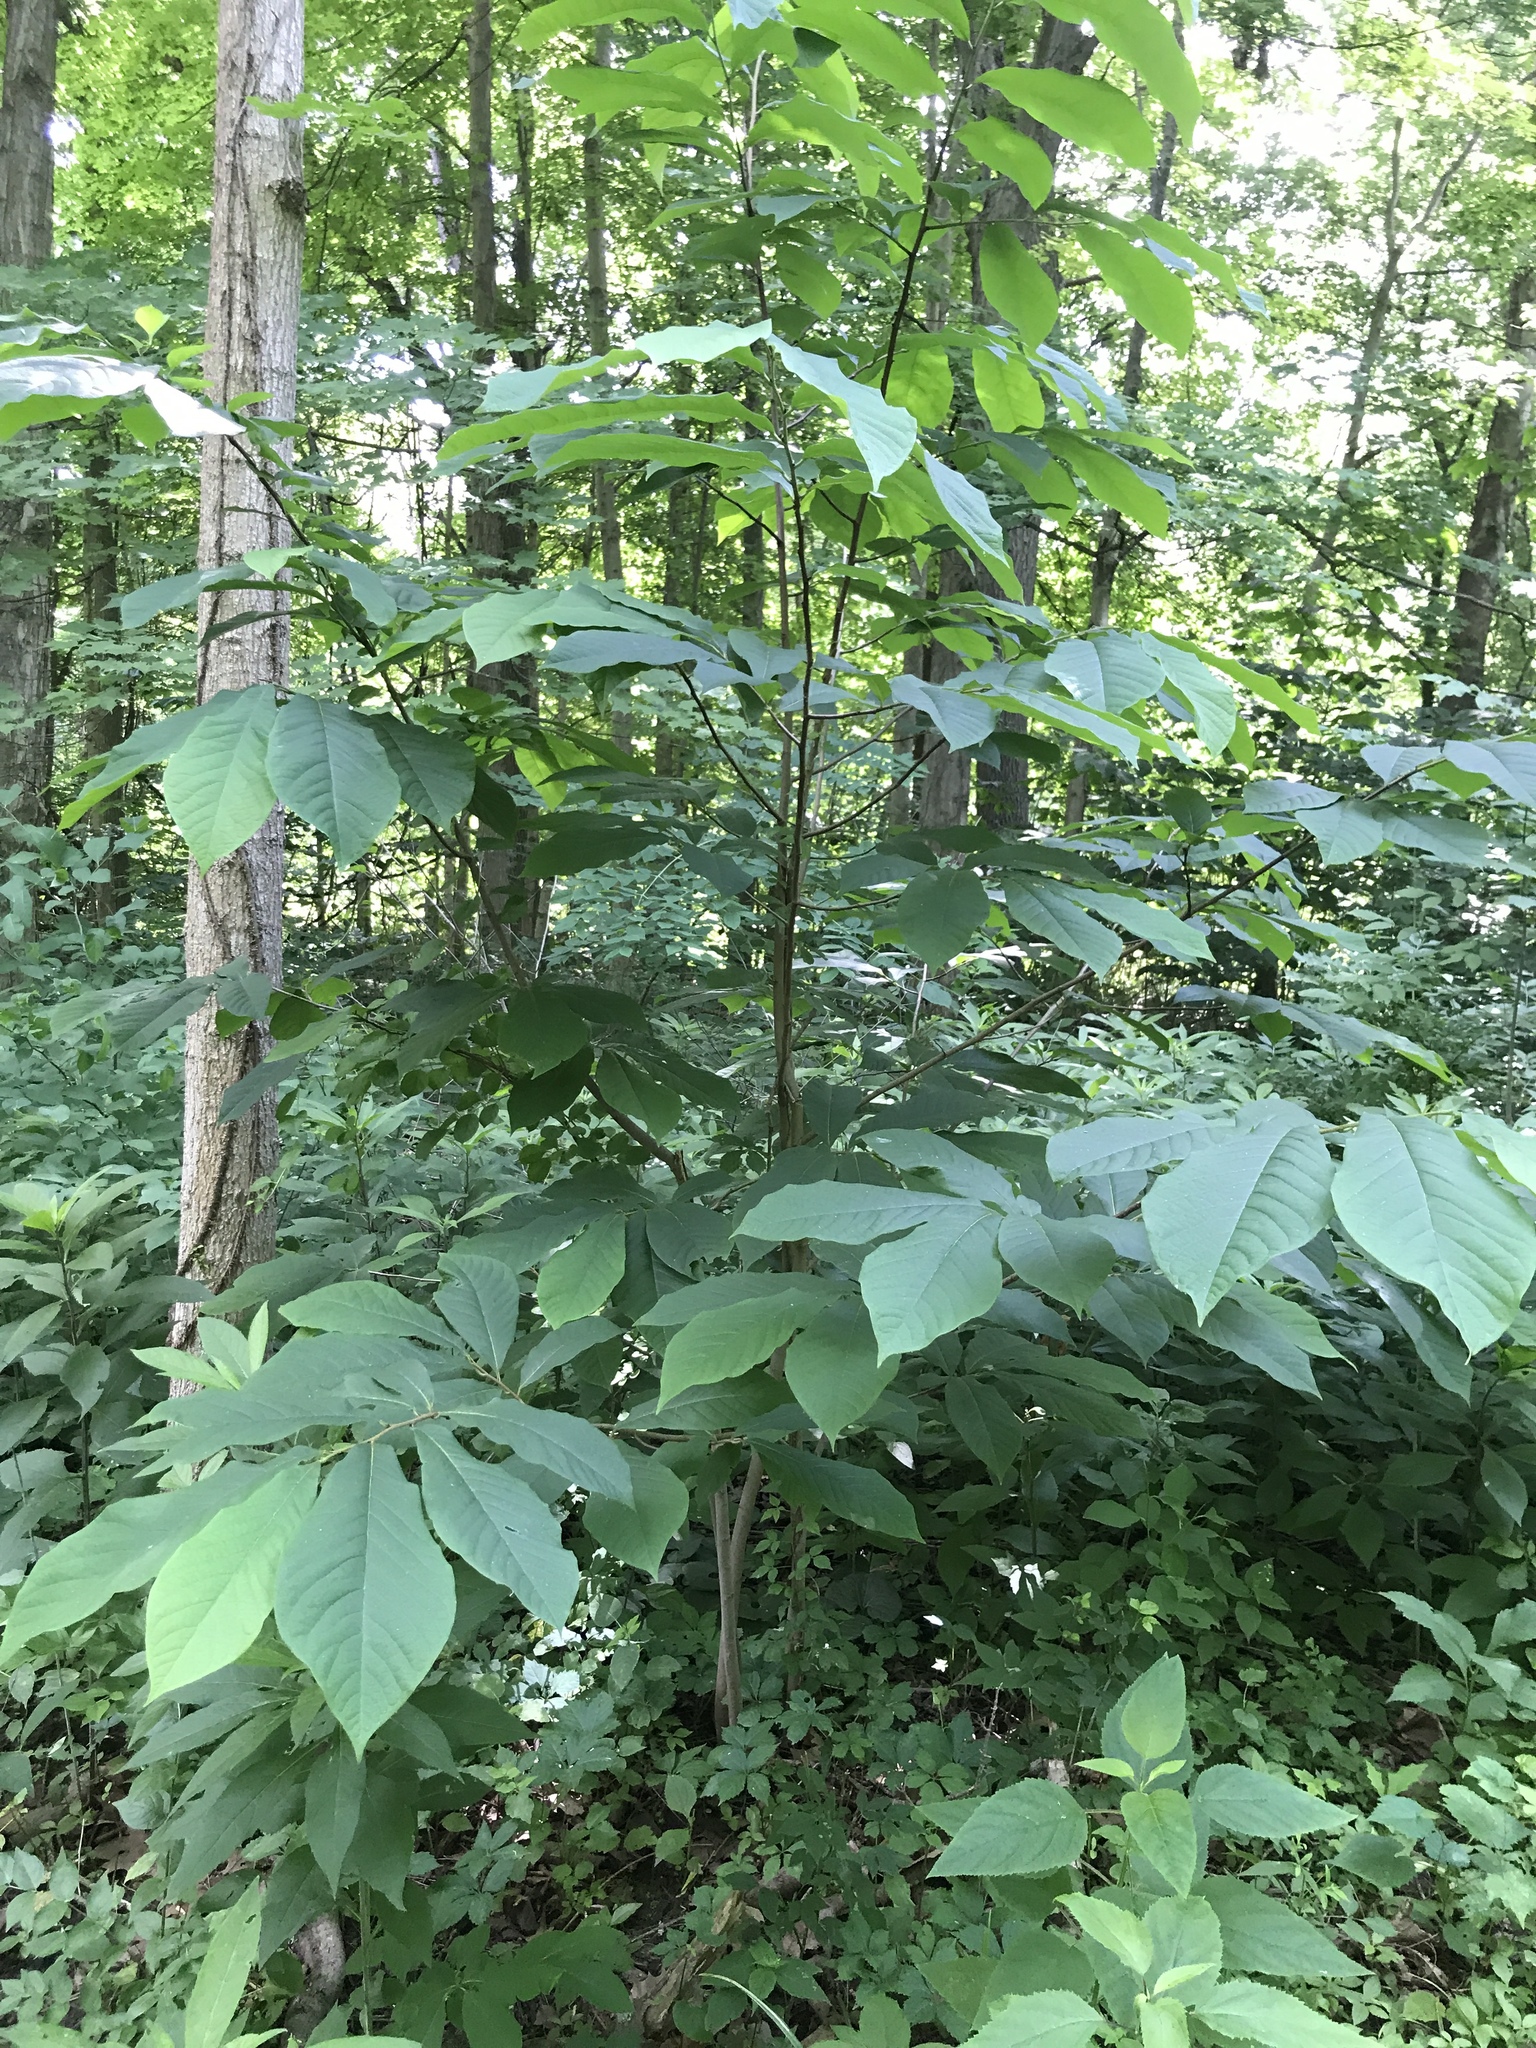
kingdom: Plantae
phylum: Tracheophyta
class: Magnoliopsida
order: Magnoliales
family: Annonaceae
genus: Asimina
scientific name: Asimina triloba
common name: Dog-banana
